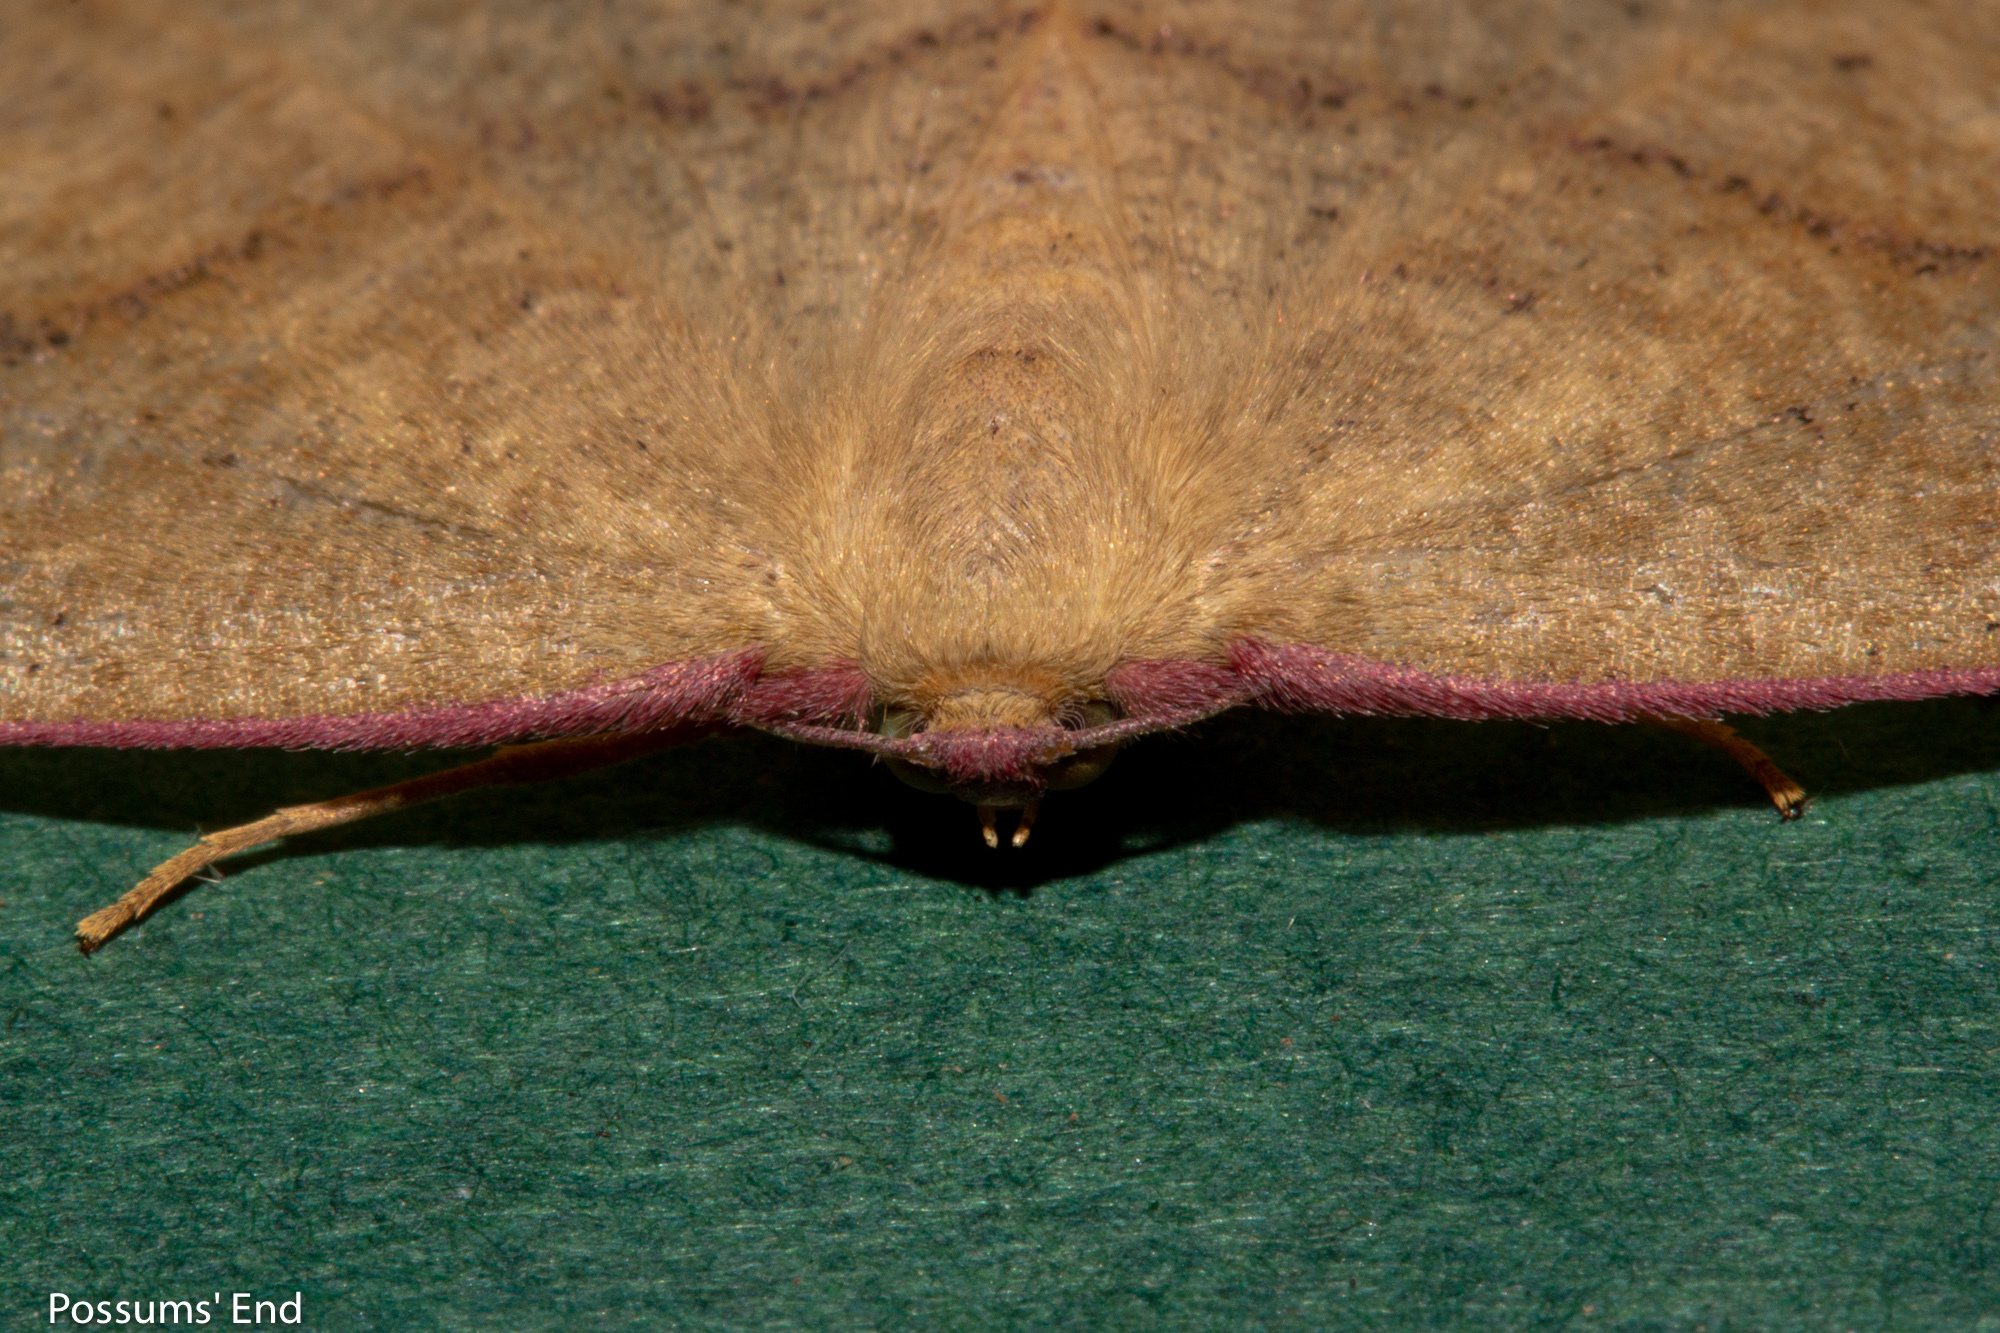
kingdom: Animalia
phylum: Arthropoda
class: Insecta
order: Lepidoptera
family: Geometridae
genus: Xyridacma
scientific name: Xyridacma alectoraria
